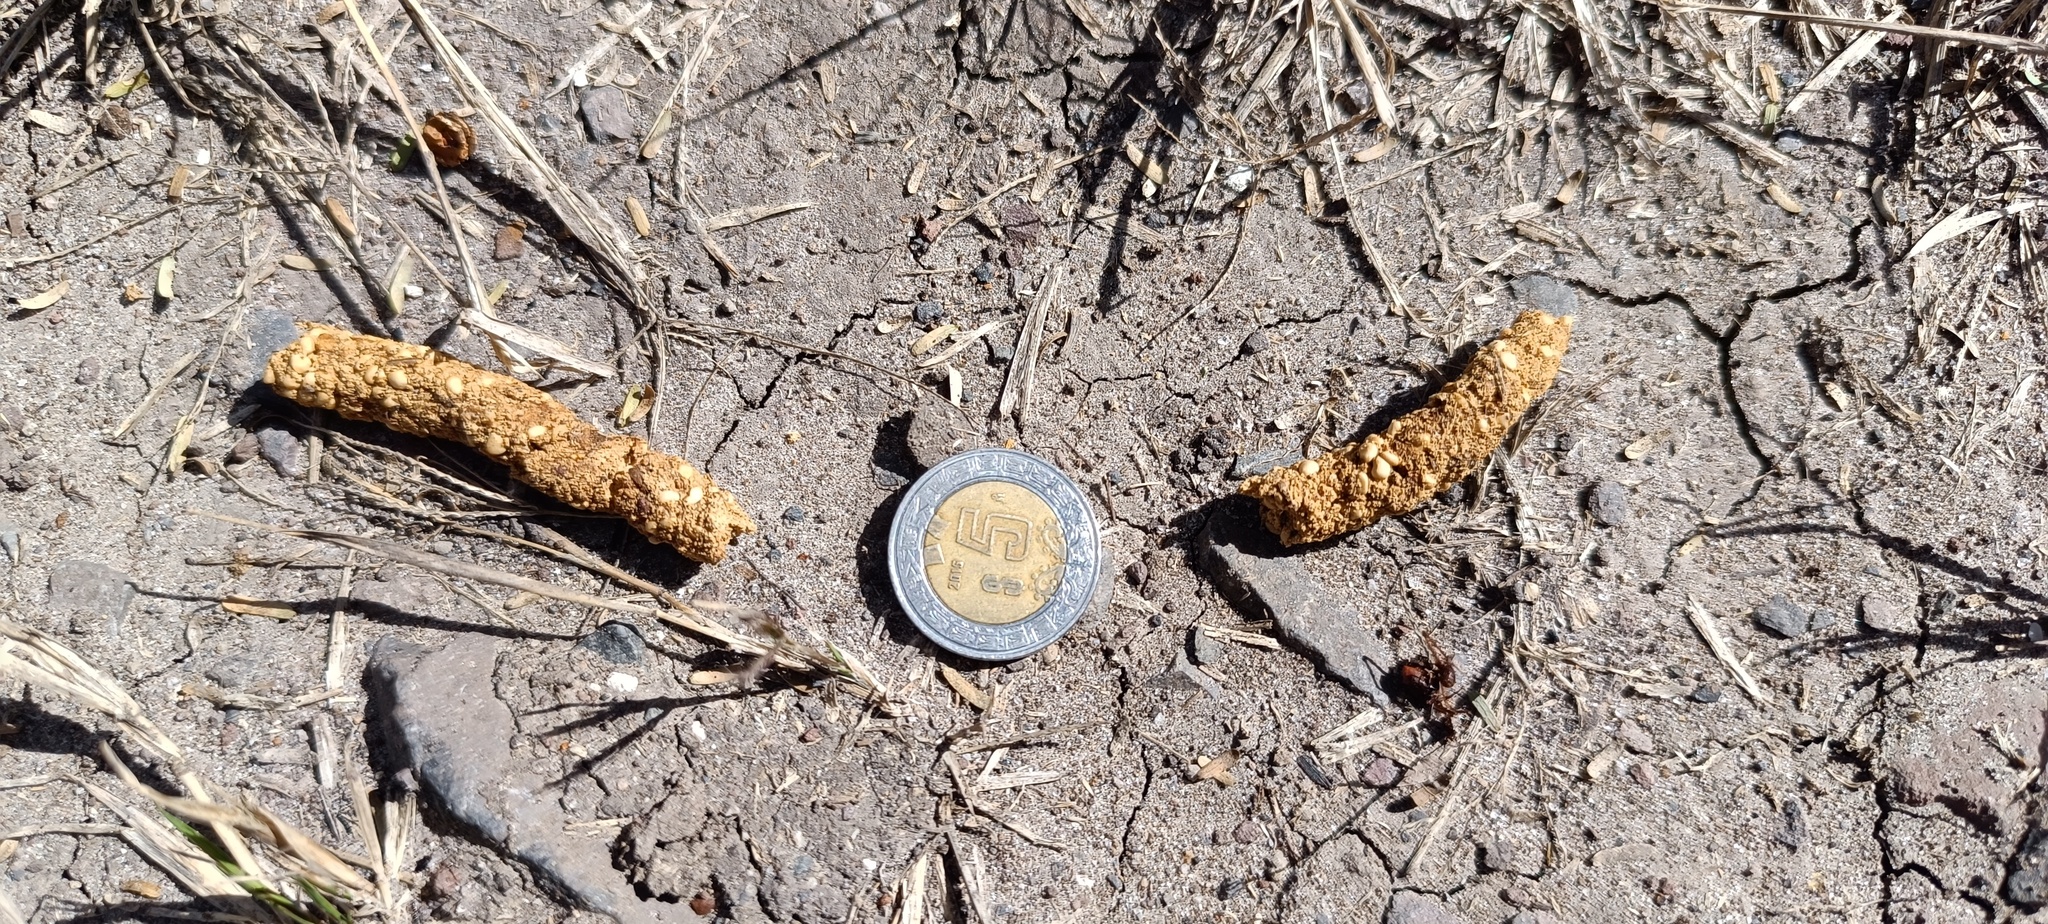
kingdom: Animalia
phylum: Chordata
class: Mammalia
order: Carnivora
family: Procyonidae
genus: Bassariscus
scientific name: Bassariscus astutus
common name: Ringtail
